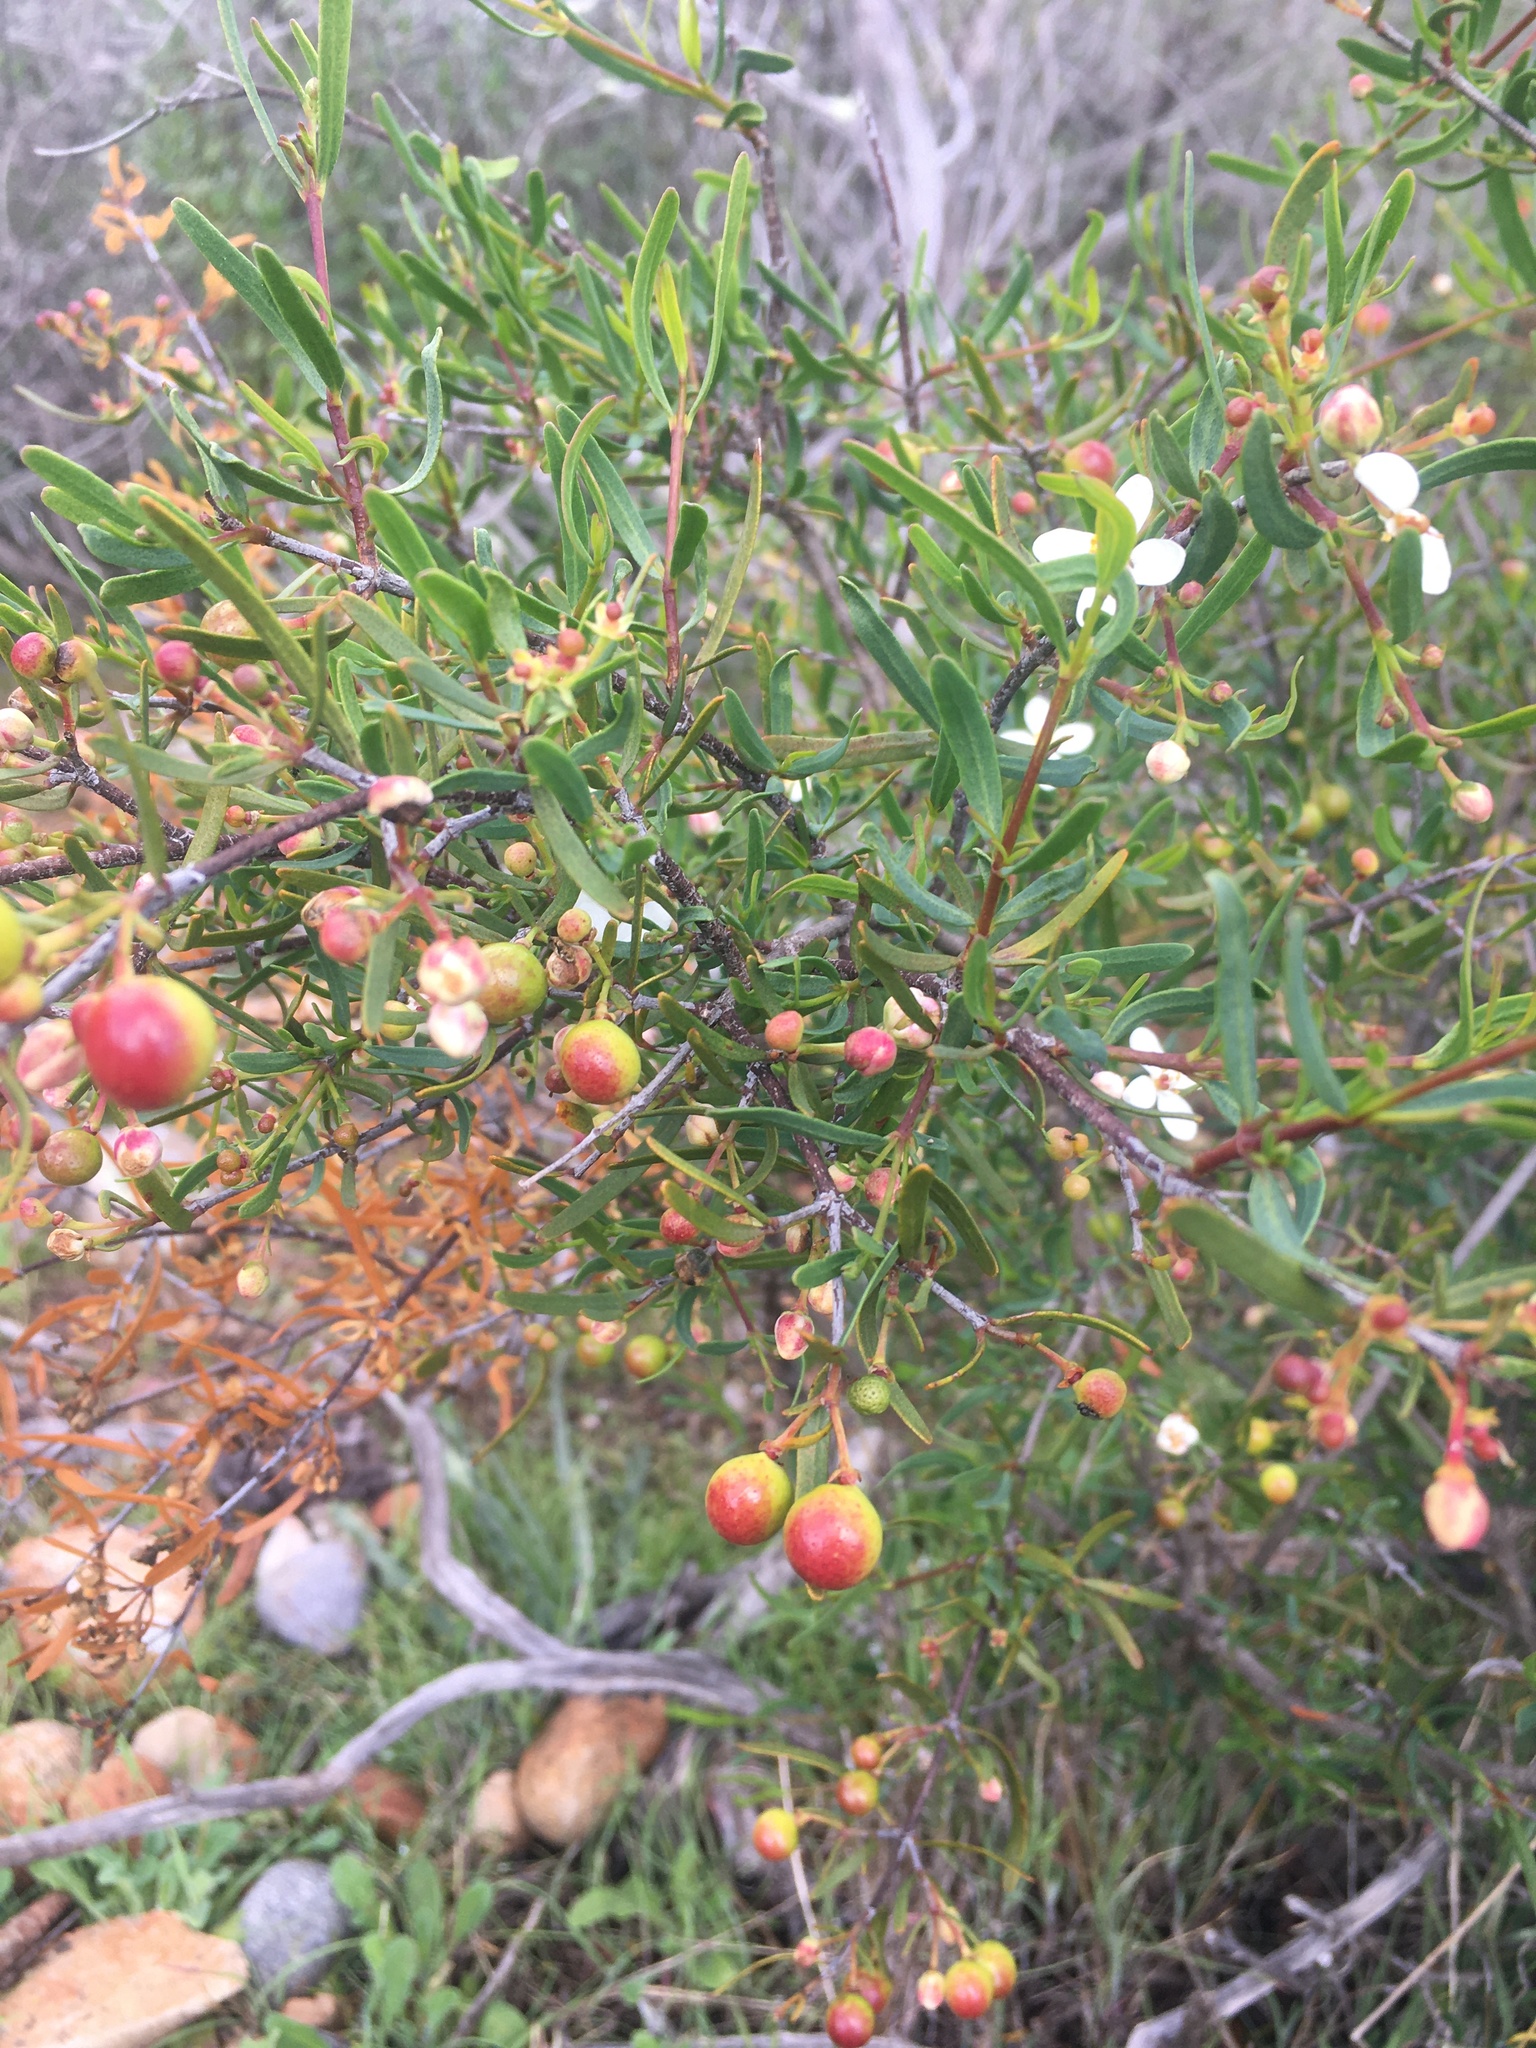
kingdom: Plantae
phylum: Tracheophyta
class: Magnoliopsida
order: Sapindales
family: Rutaceae
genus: Cneoridium
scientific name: Cneoridium dumosum
